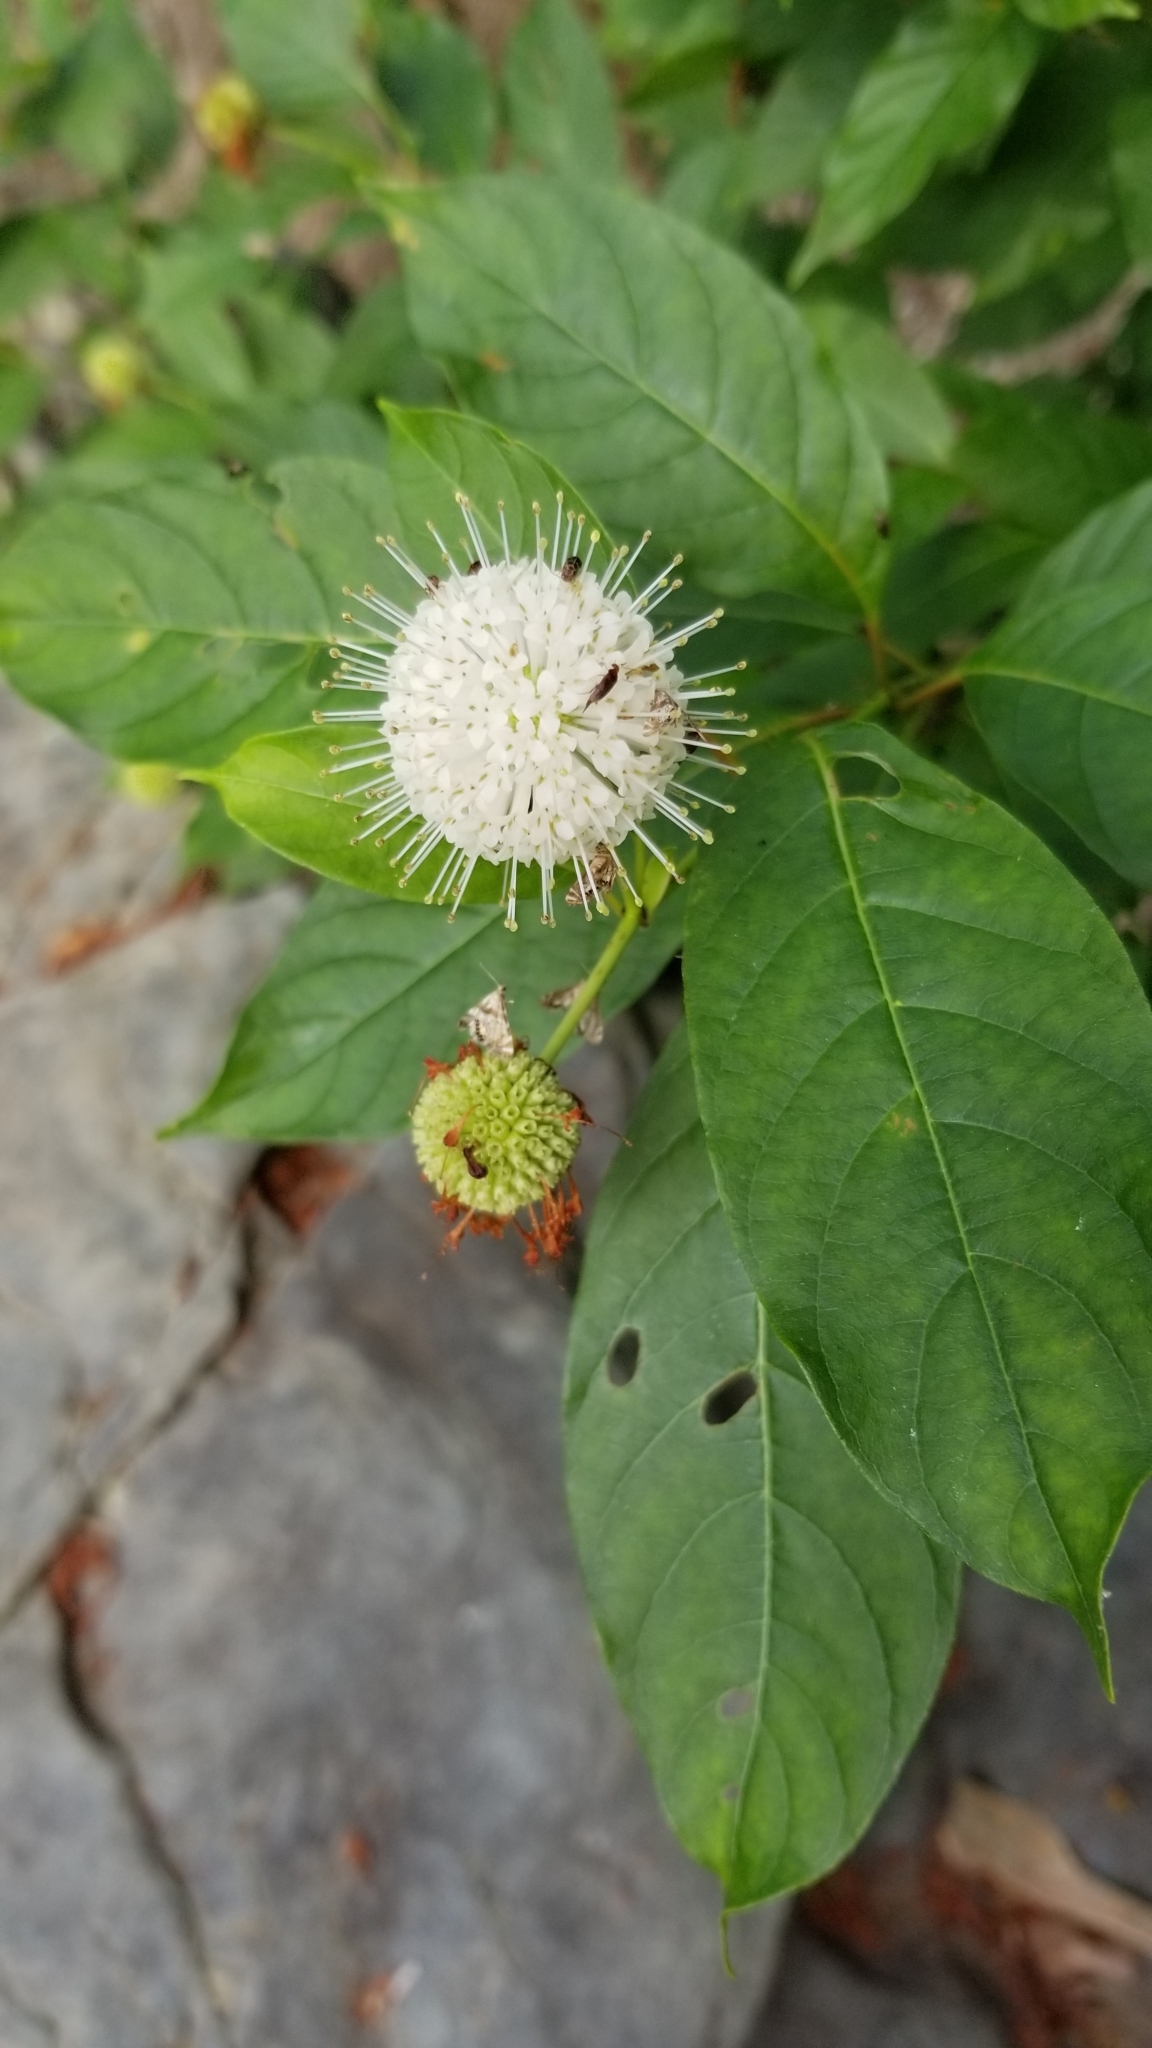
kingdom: Plantae
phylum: Tracheophyta
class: Magnoliopsida
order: Gentianales
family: Rubiaceae
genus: Cephalanthus
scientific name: Cephalanthus occidentalis
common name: Button-willow
